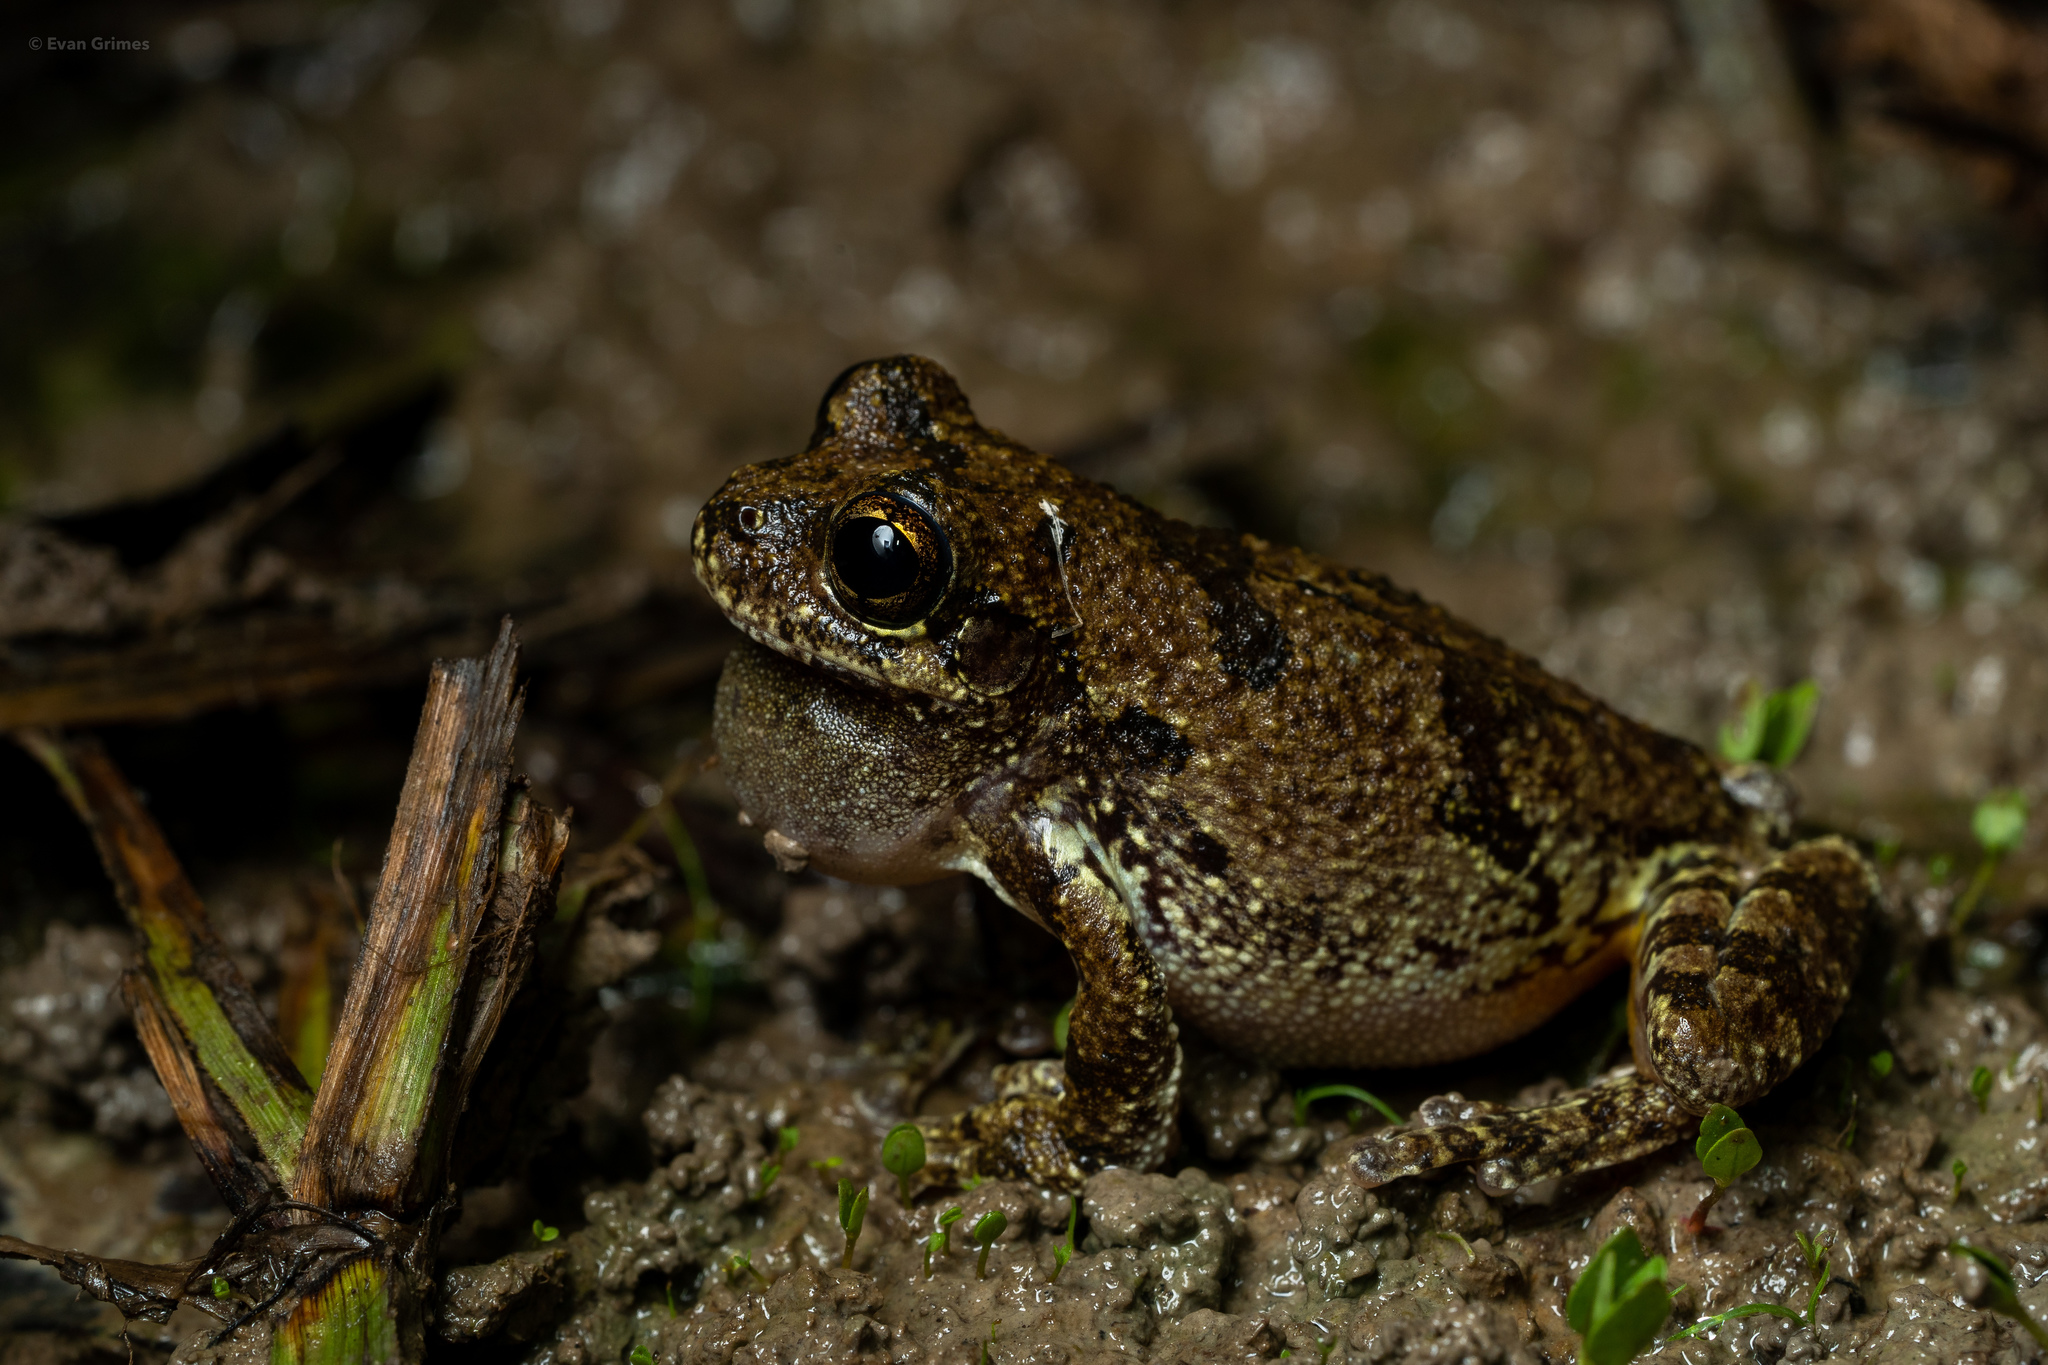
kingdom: Animalia
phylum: Chordata
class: Amphibia
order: Anura
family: Hylidae
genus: Dryophytes
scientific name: Dryophytes chrysoscelis
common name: Cope's gray treefrog
